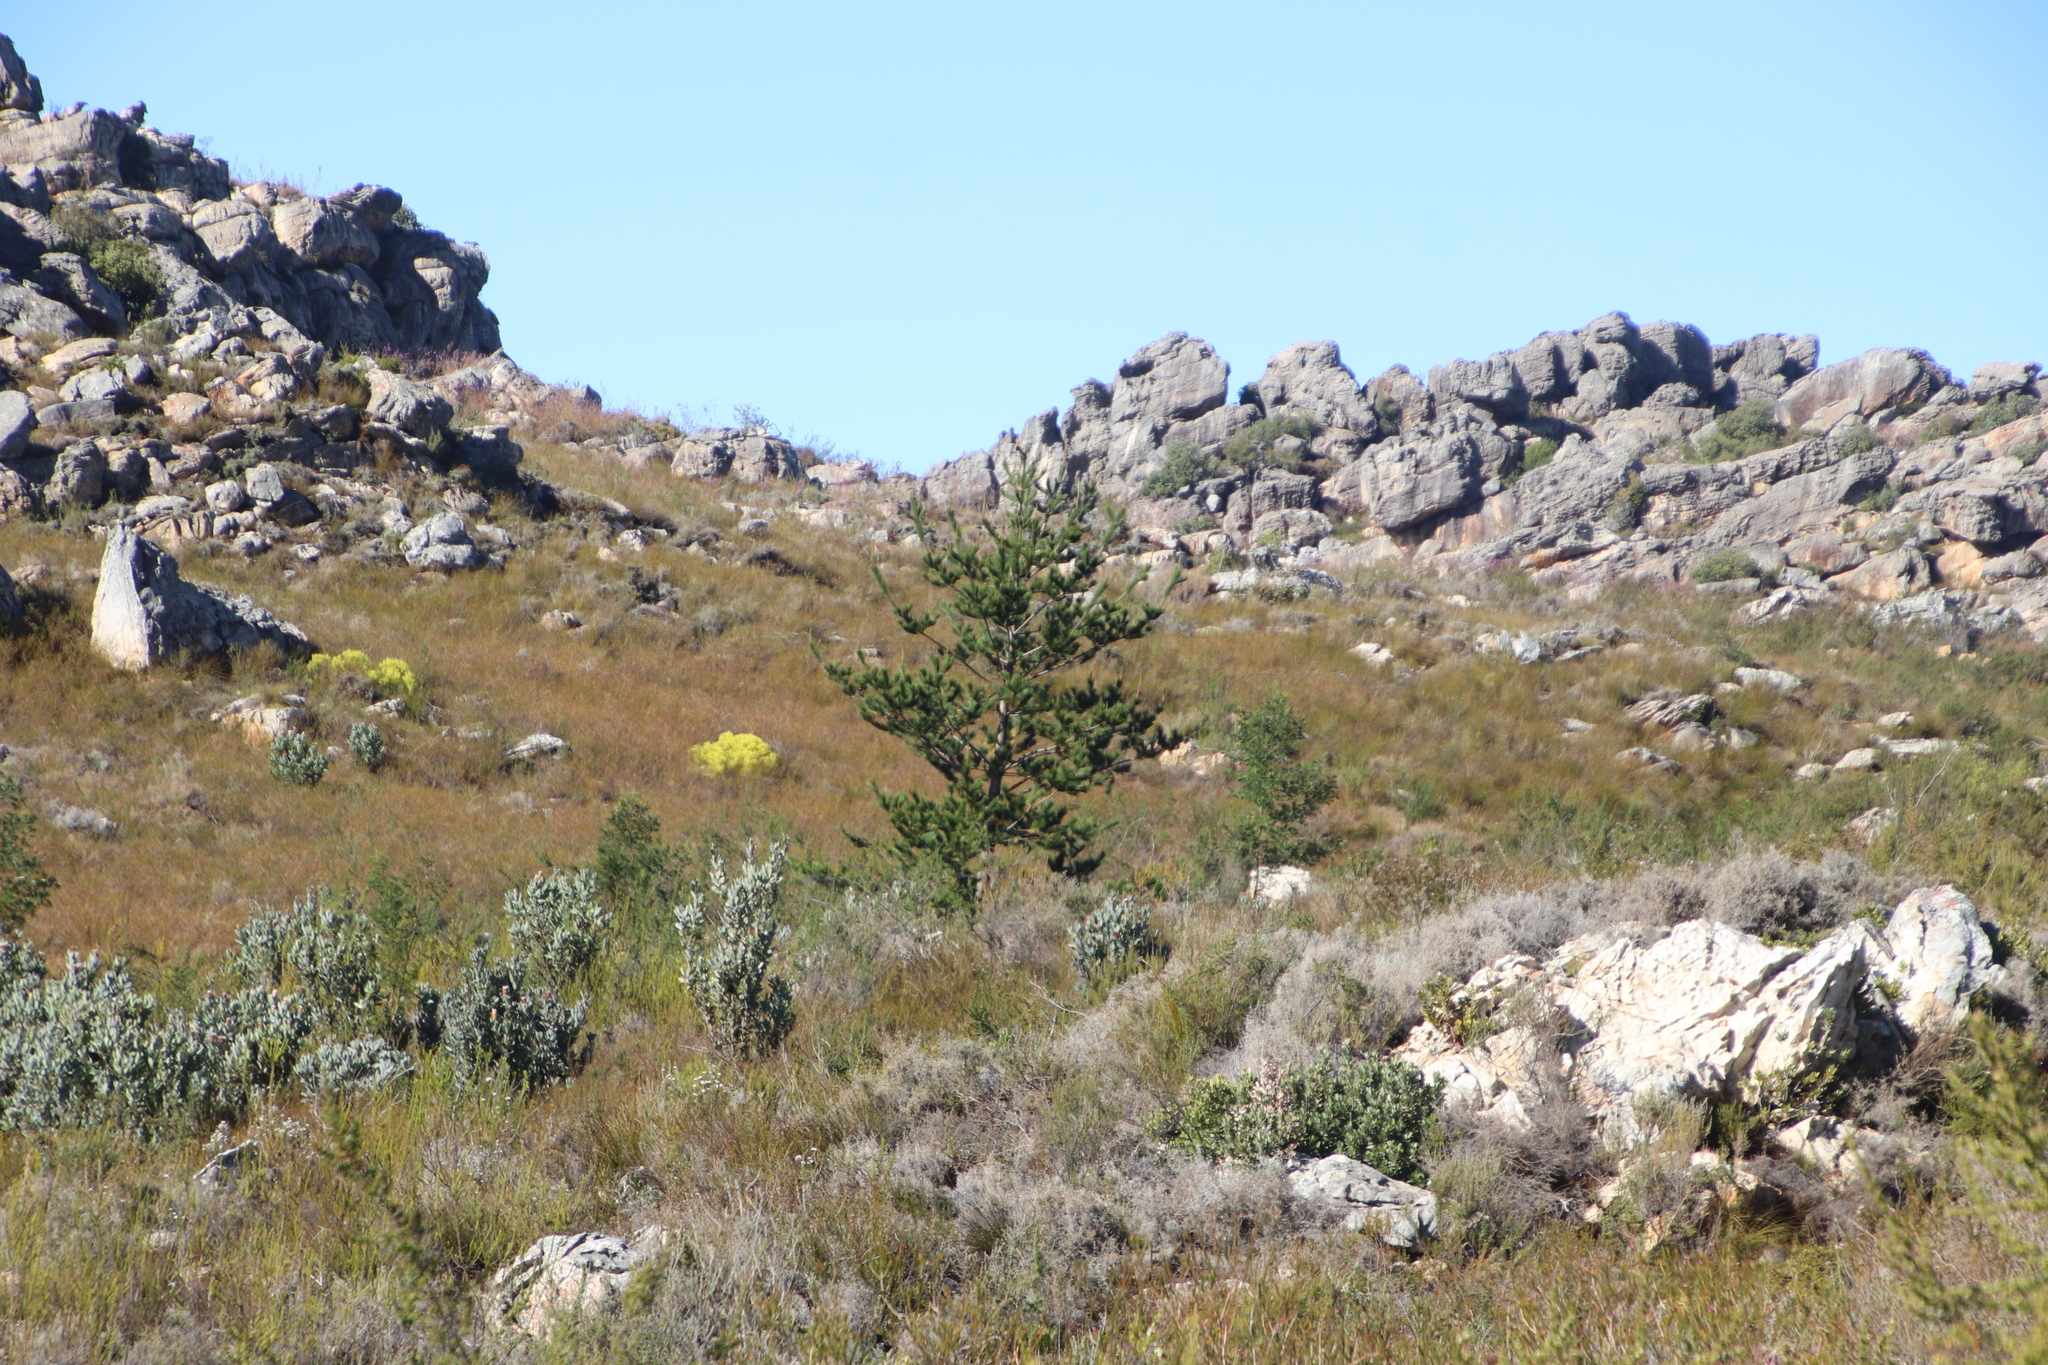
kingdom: Plantae
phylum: Tracheophyta
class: Pinopsida
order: Pinales
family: Pinaceae
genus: Pinus
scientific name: Pinus radiata
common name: Monterey pine
